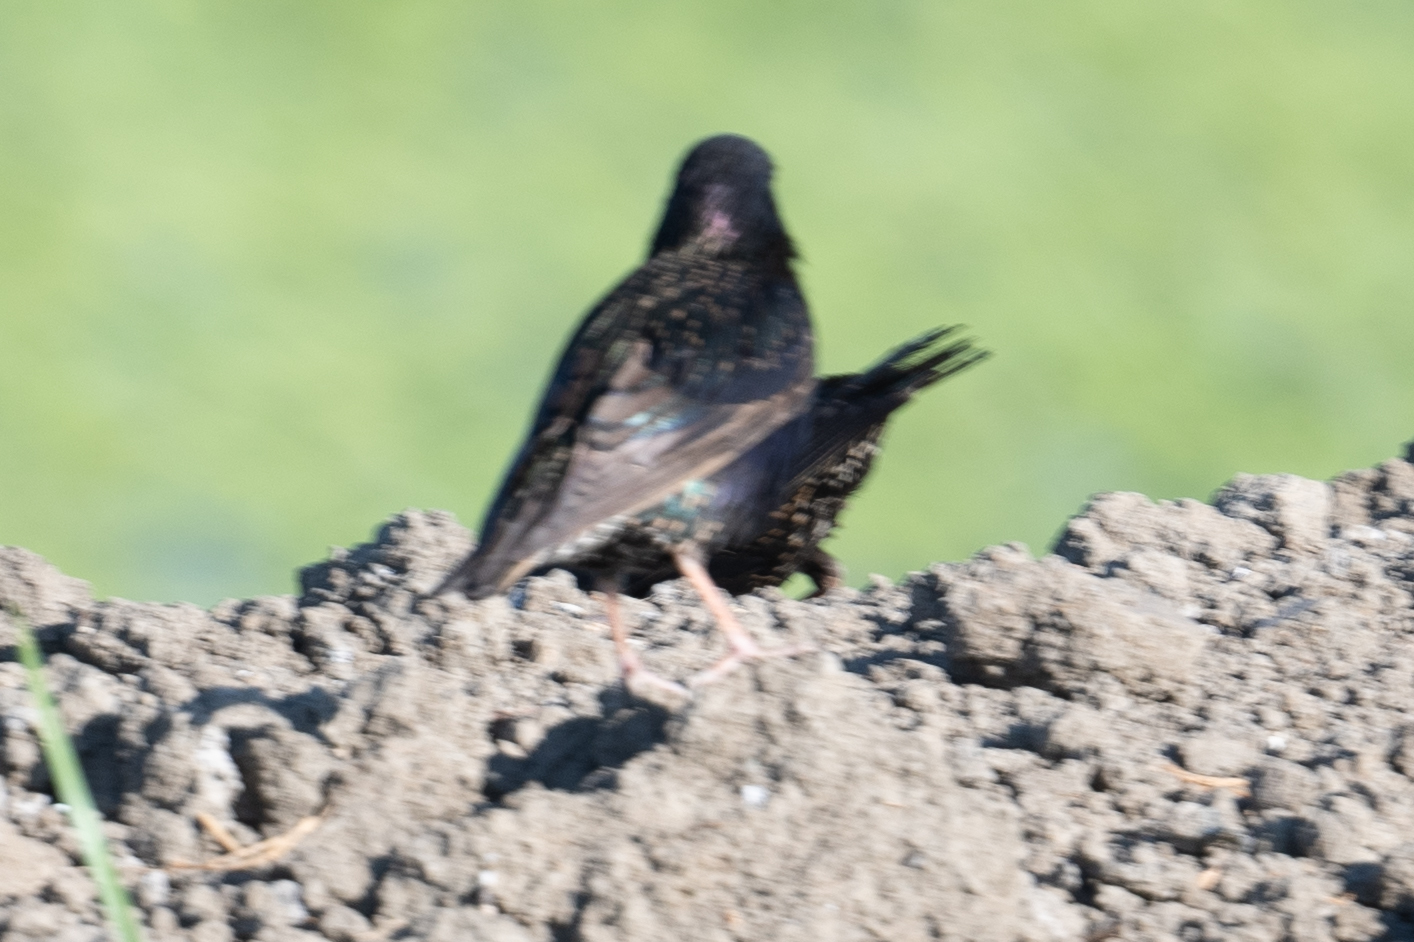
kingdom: Animalia
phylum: Chordata
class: Aves
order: Passeriformes
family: Sturnidae
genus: Sturnus
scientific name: Sturnus vulgaris
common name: Common starling
